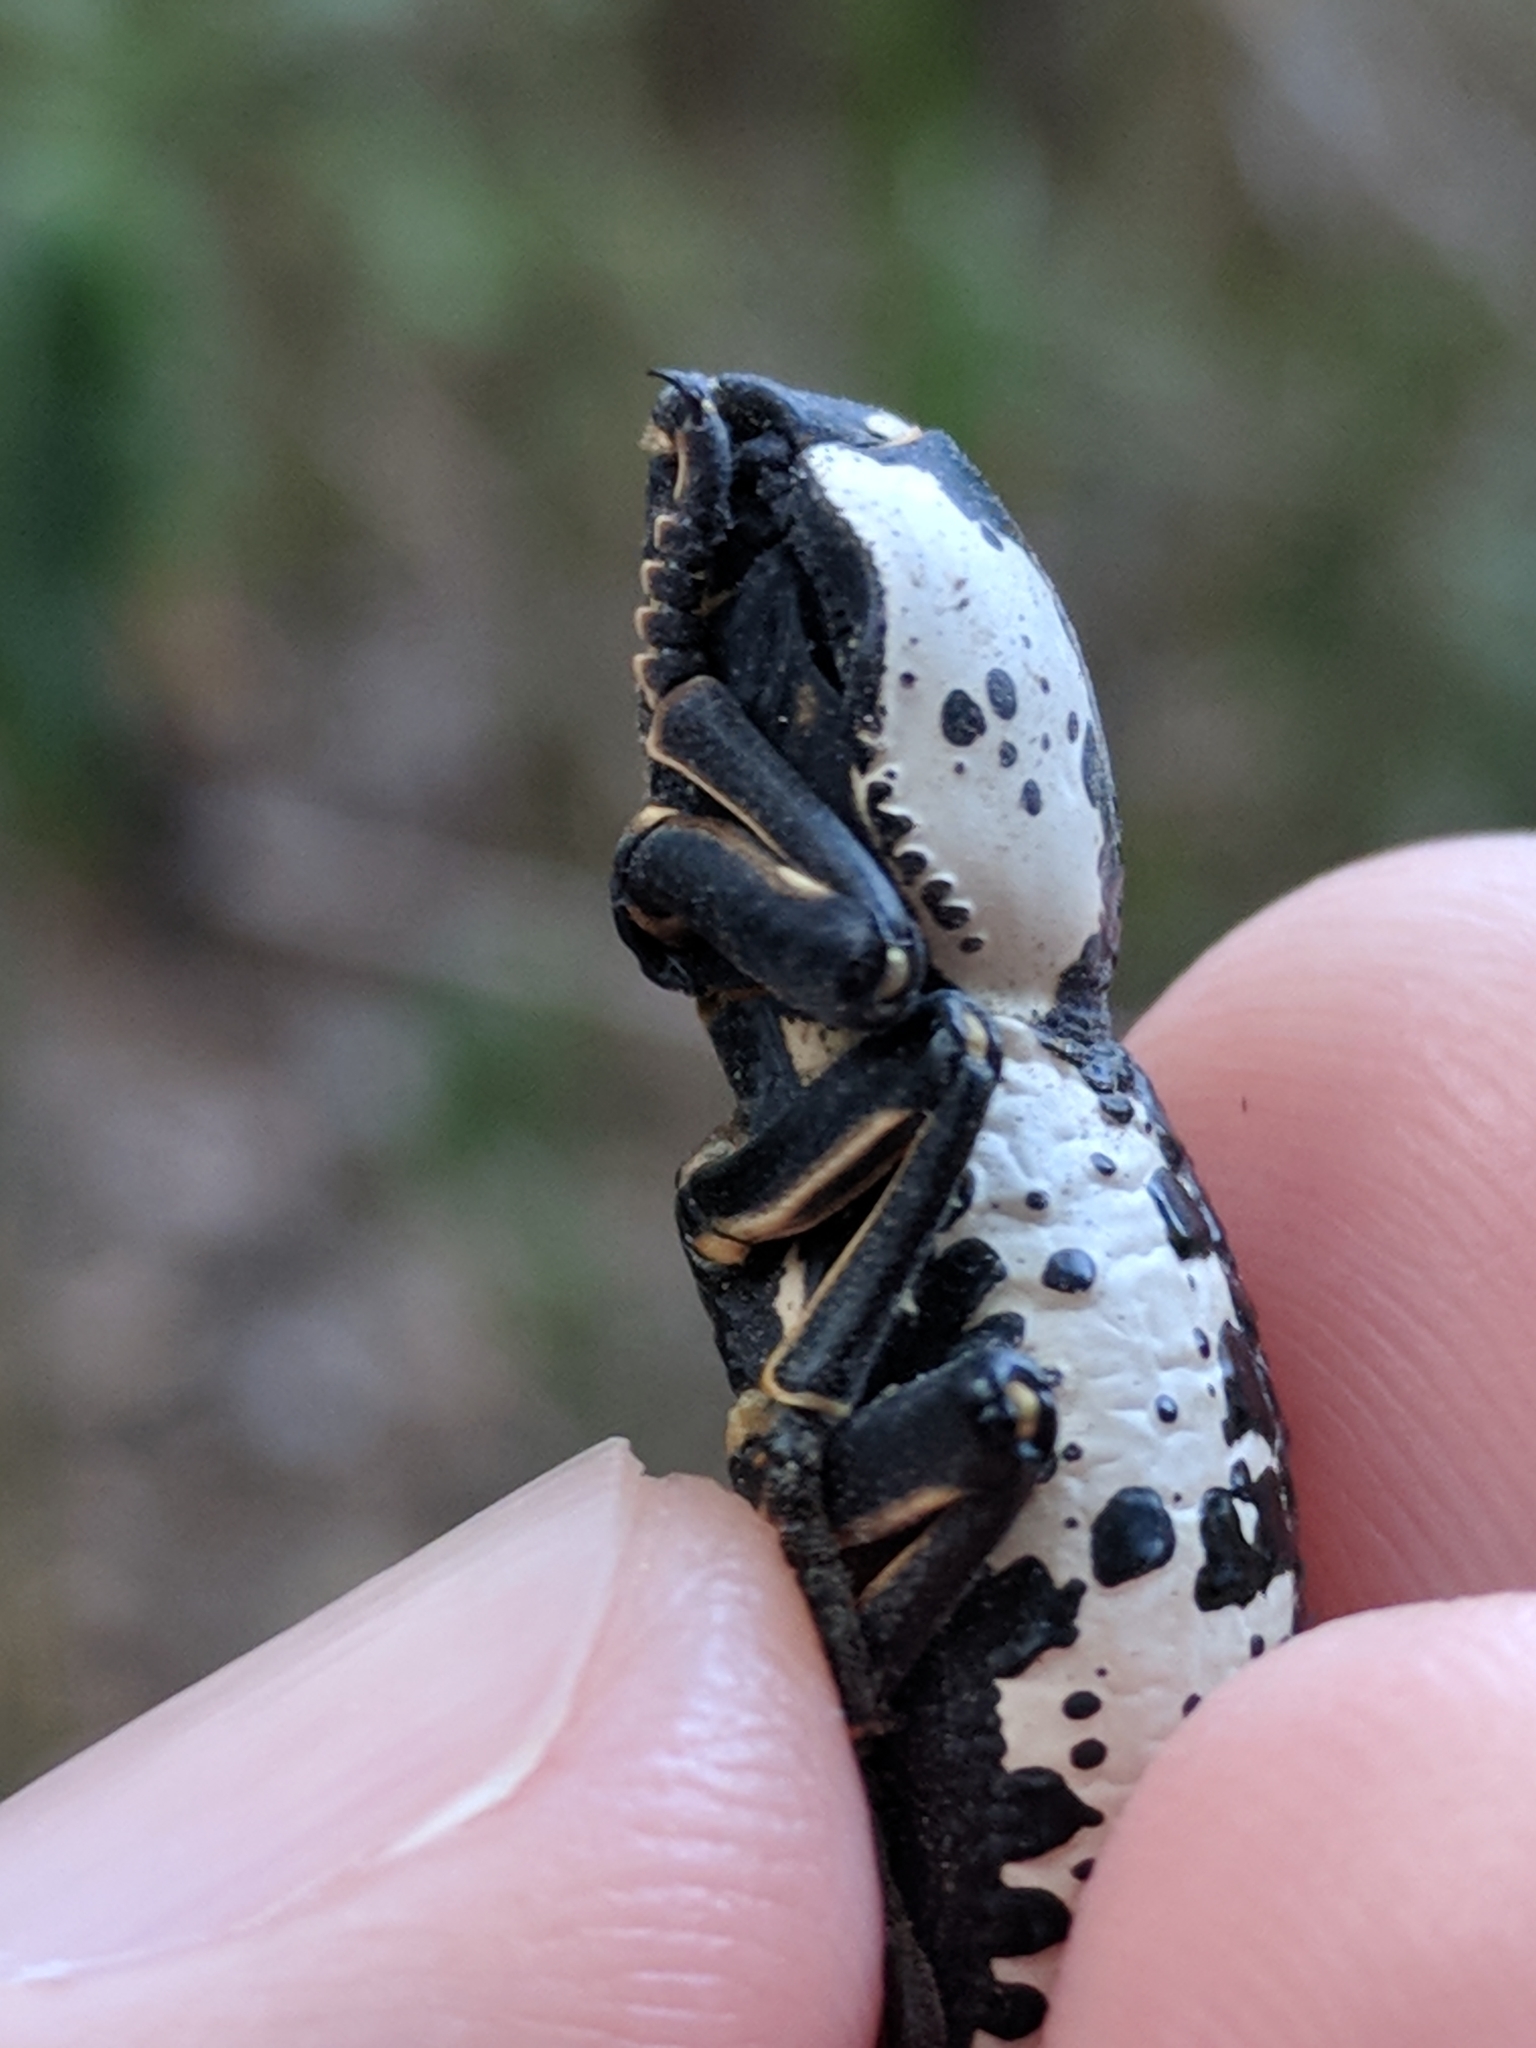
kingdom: Animalia
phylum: Arthropoda
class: Insecta
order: Coleoptera
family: Zopheridae
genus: Zopherus
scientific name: Zopherus nodulosus
